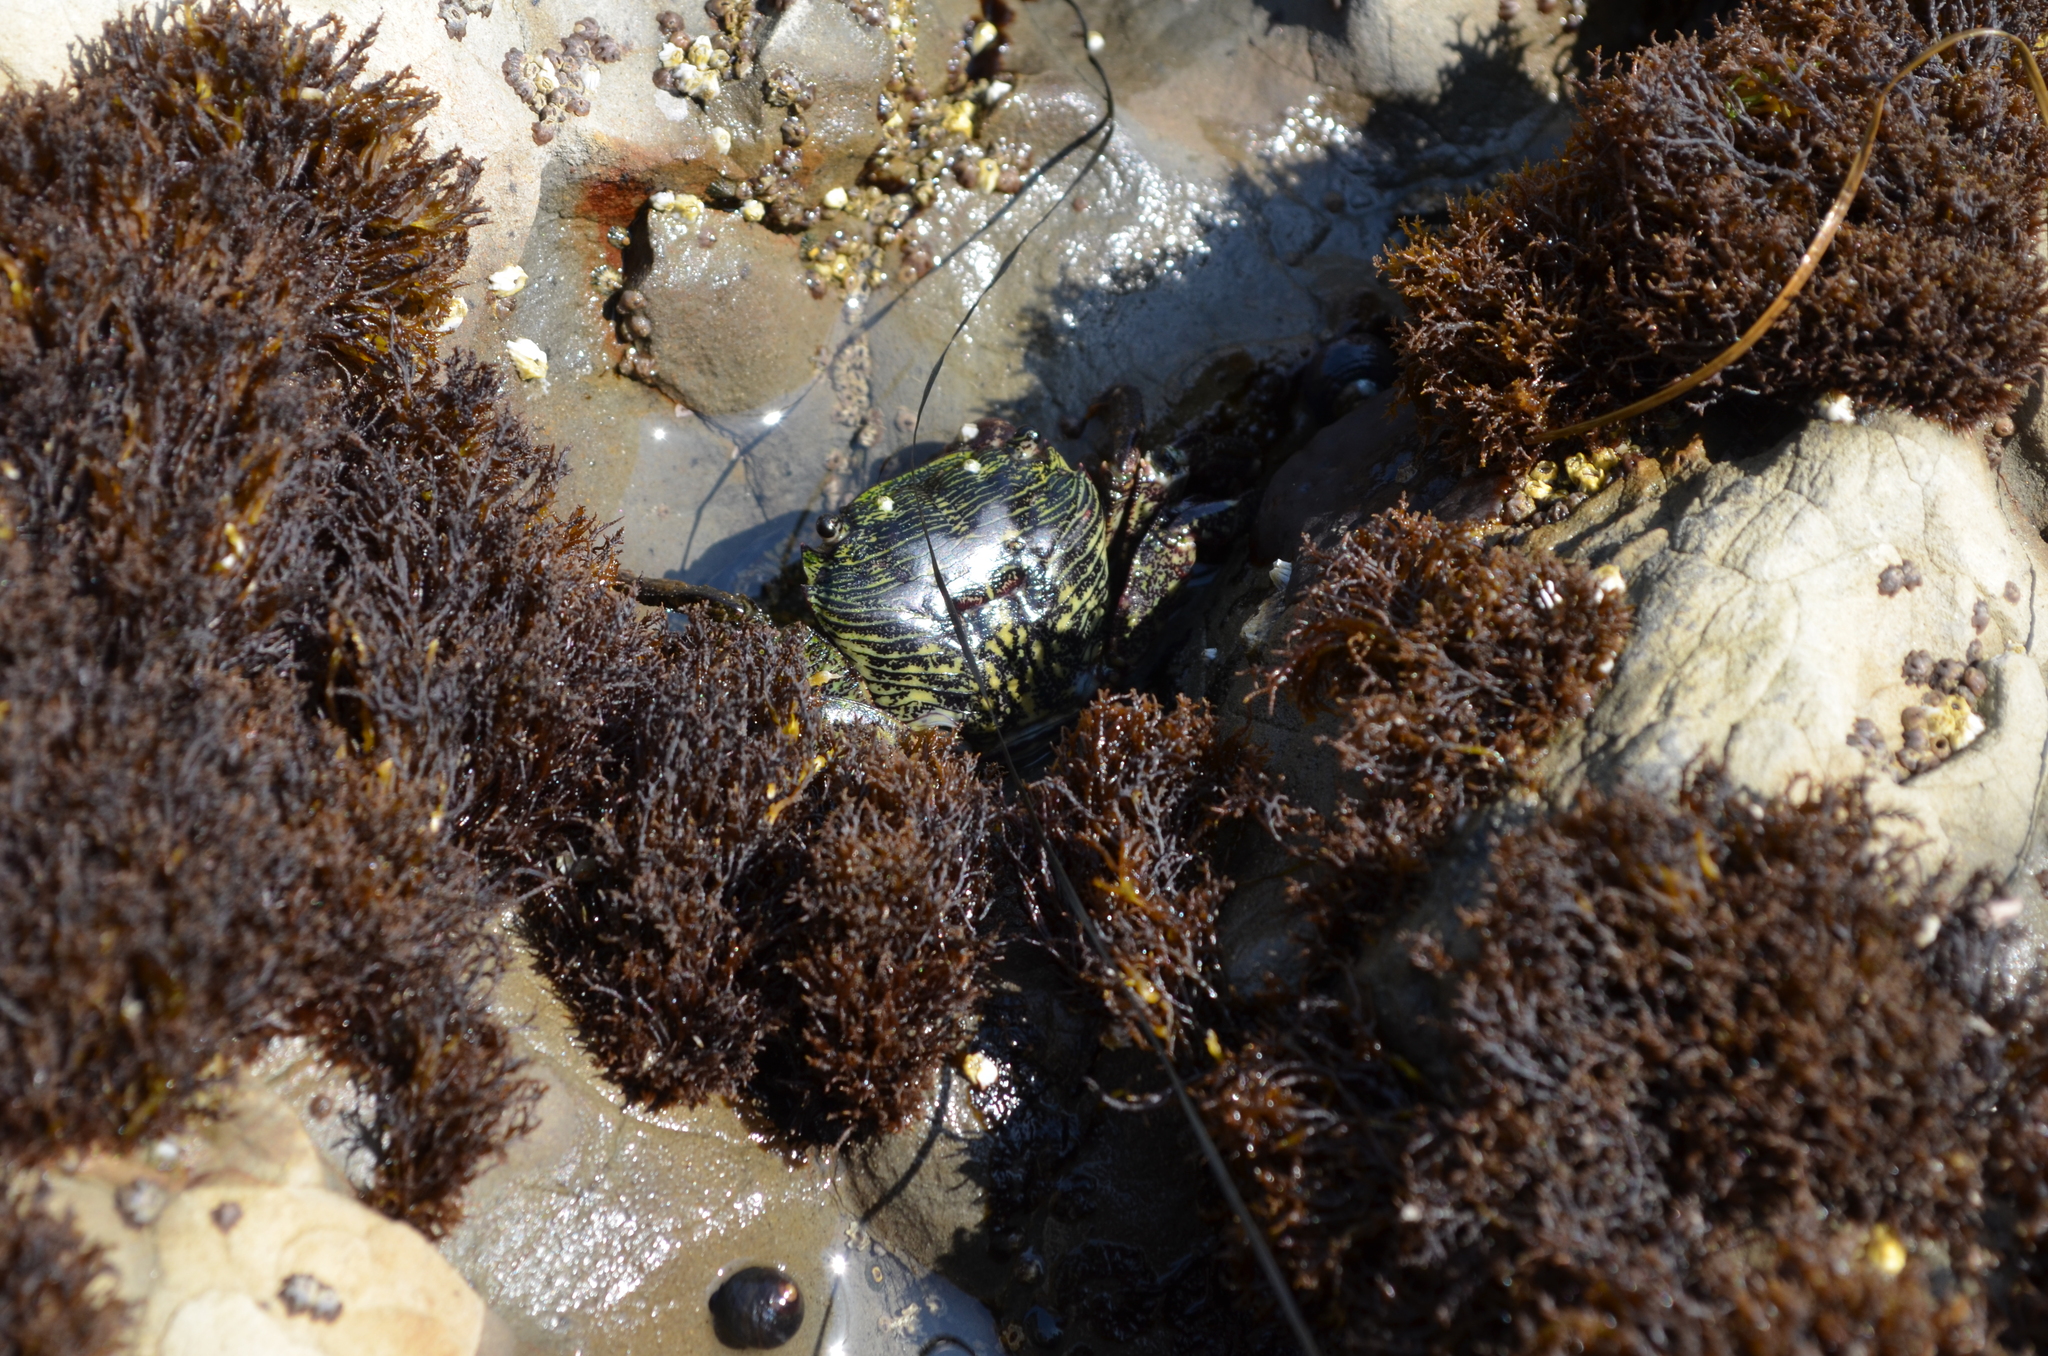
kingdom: Animalia
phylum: Arthropoda
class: Malacostraca
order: Decapoda
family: Grapsidae
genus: Pachygrapsus
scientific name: Pachygrapsus crassipes
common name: Striped shore crab
